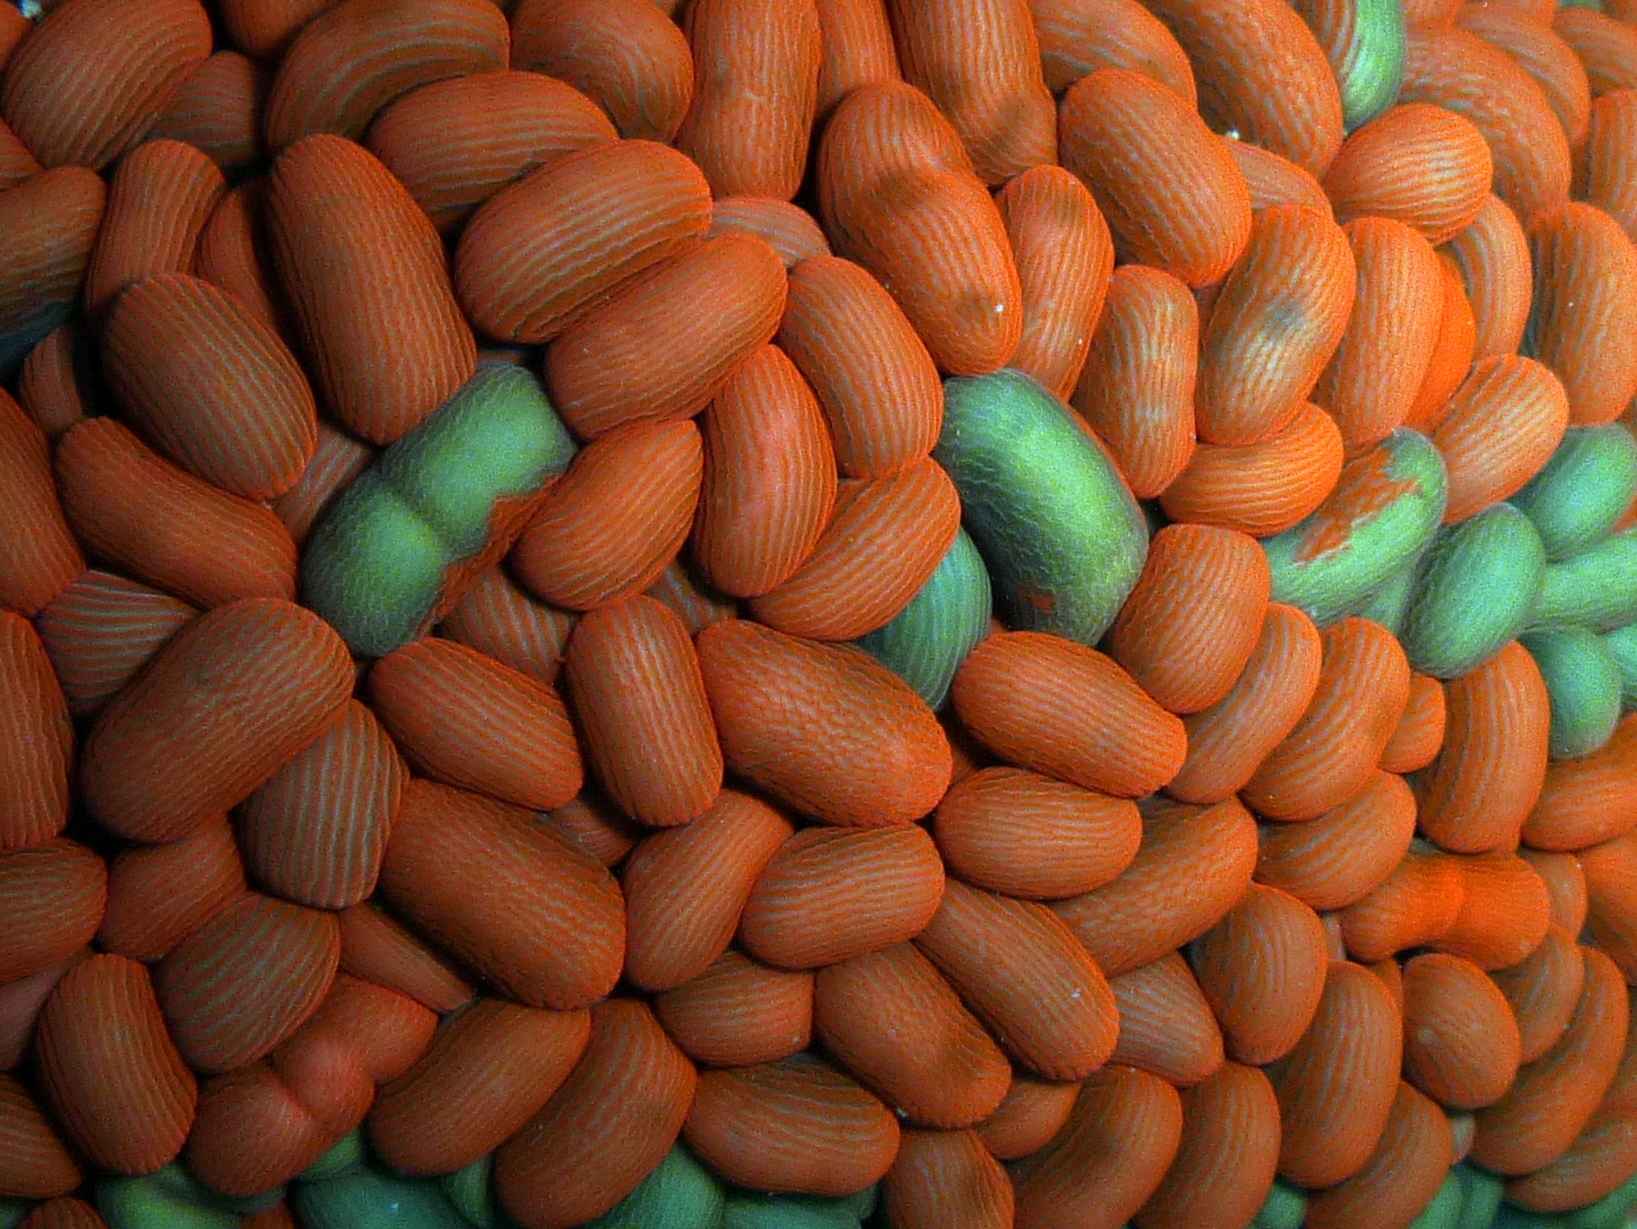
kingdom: Animalia
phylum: Cnidaria
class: Anthozoa
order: Actiniaria
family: Actiniidae
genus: Phlyctenactis
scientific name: Phlyctenactis tuberculosa
